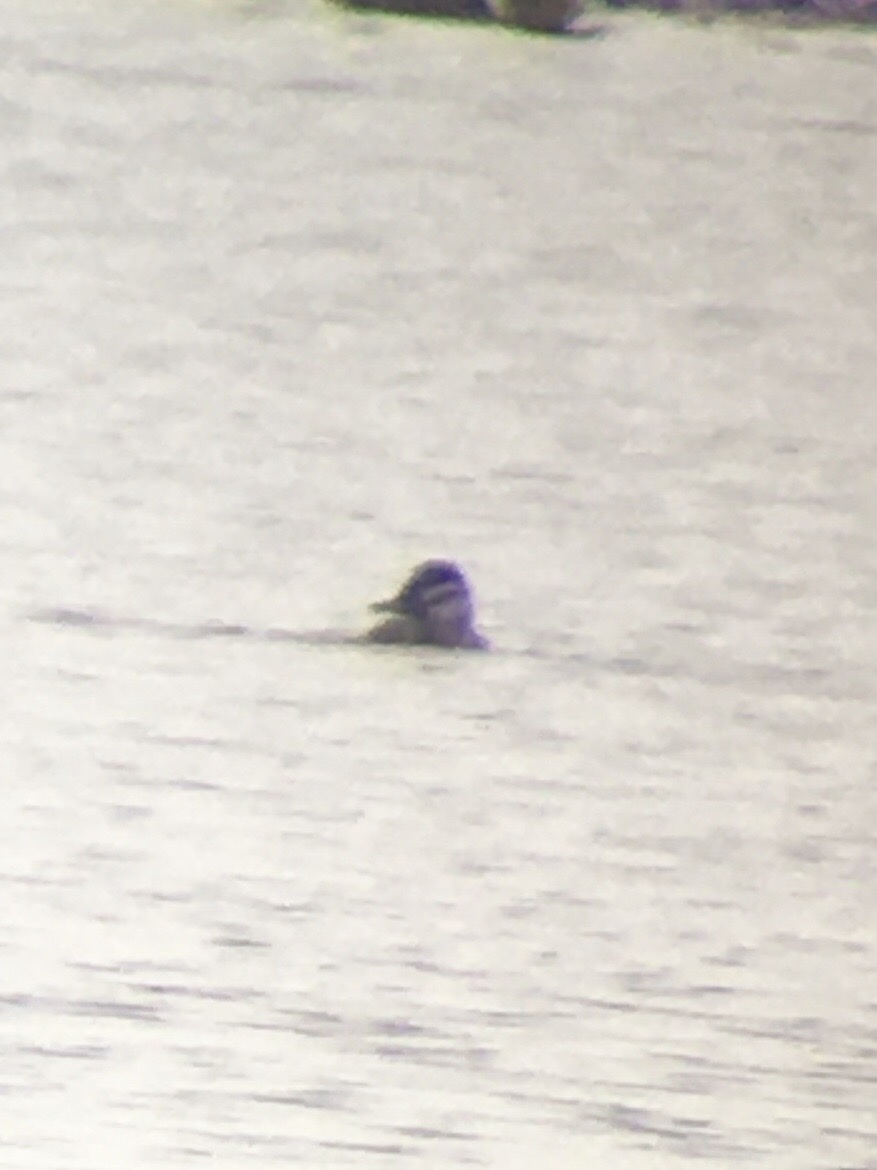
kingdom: Animalia
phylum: Chordata
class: Aves
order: Anseriformes
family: Anatidae
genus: Oxyura
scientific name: Oxyura jamaicensis
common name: Ruddy duck
